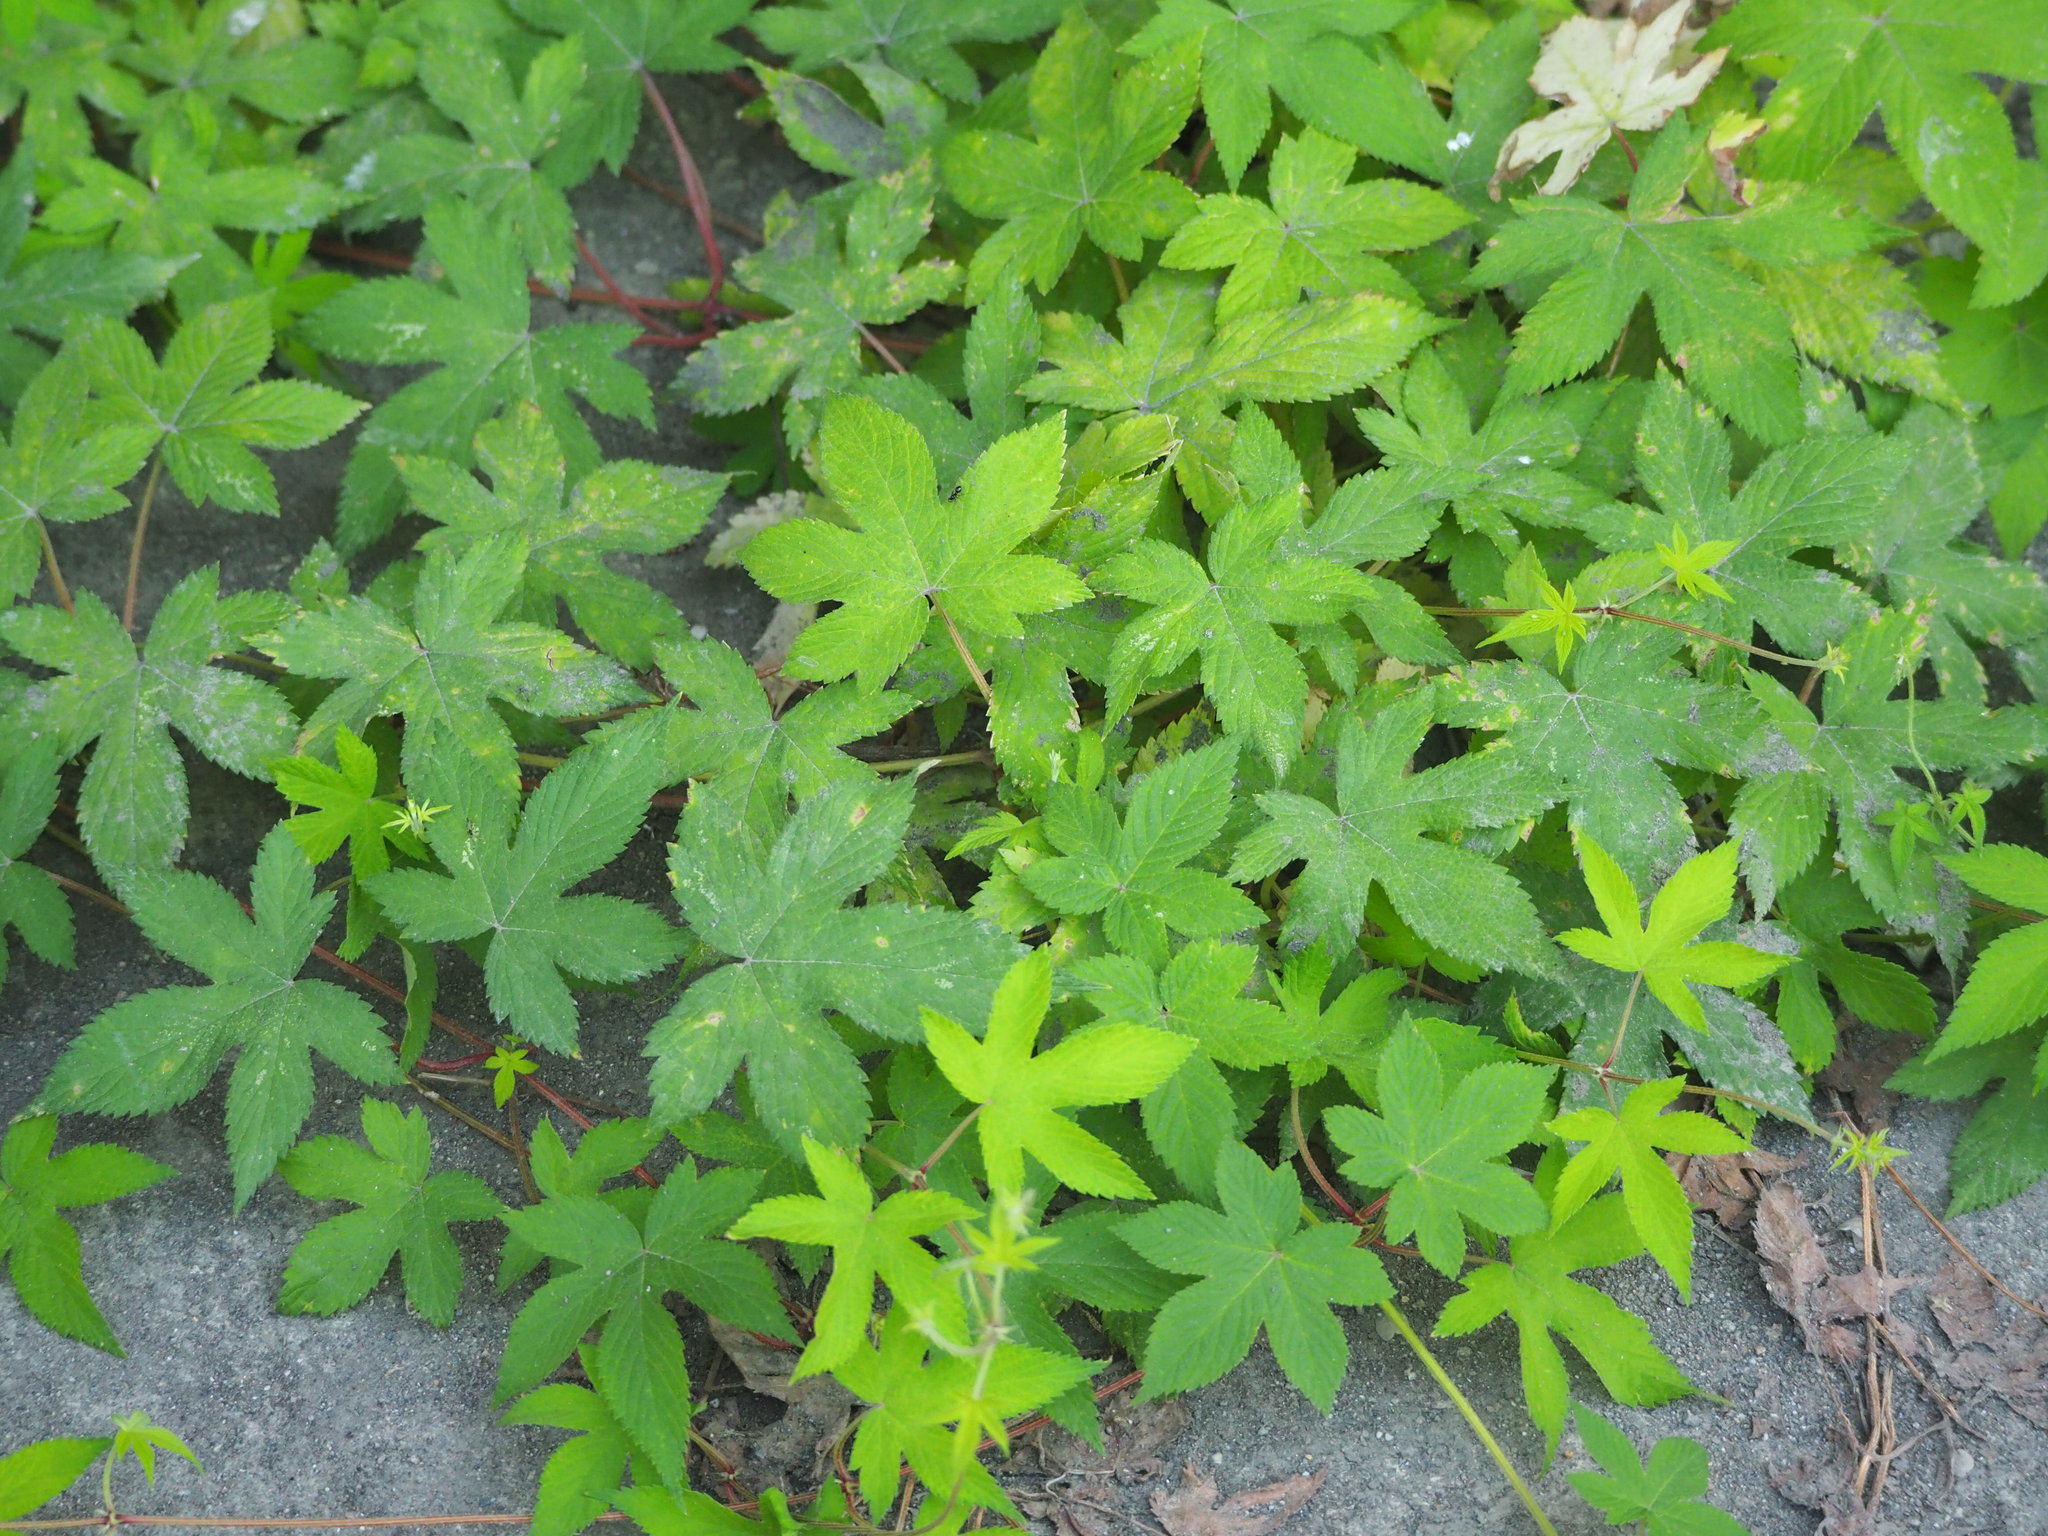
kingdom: Plantae
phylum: Tracheophyta
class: Magnoliopsida
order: Rosales
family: Cannabaceae
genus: Humulus
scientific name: Humulus scandens
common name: Japanese hop
